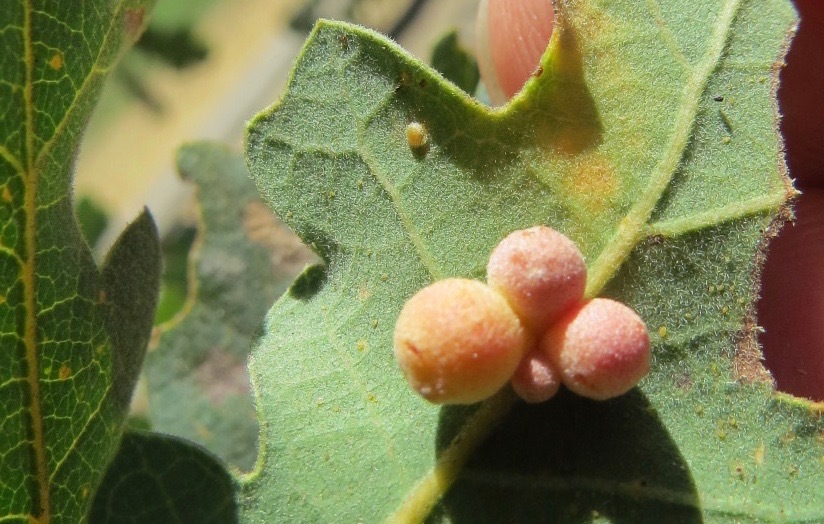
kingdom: Animalia
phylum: Arthropoda
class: Insecta
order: Hymenoptera
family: Cynipidae
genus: Neuroterus
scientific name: Neuroterus saltarius
